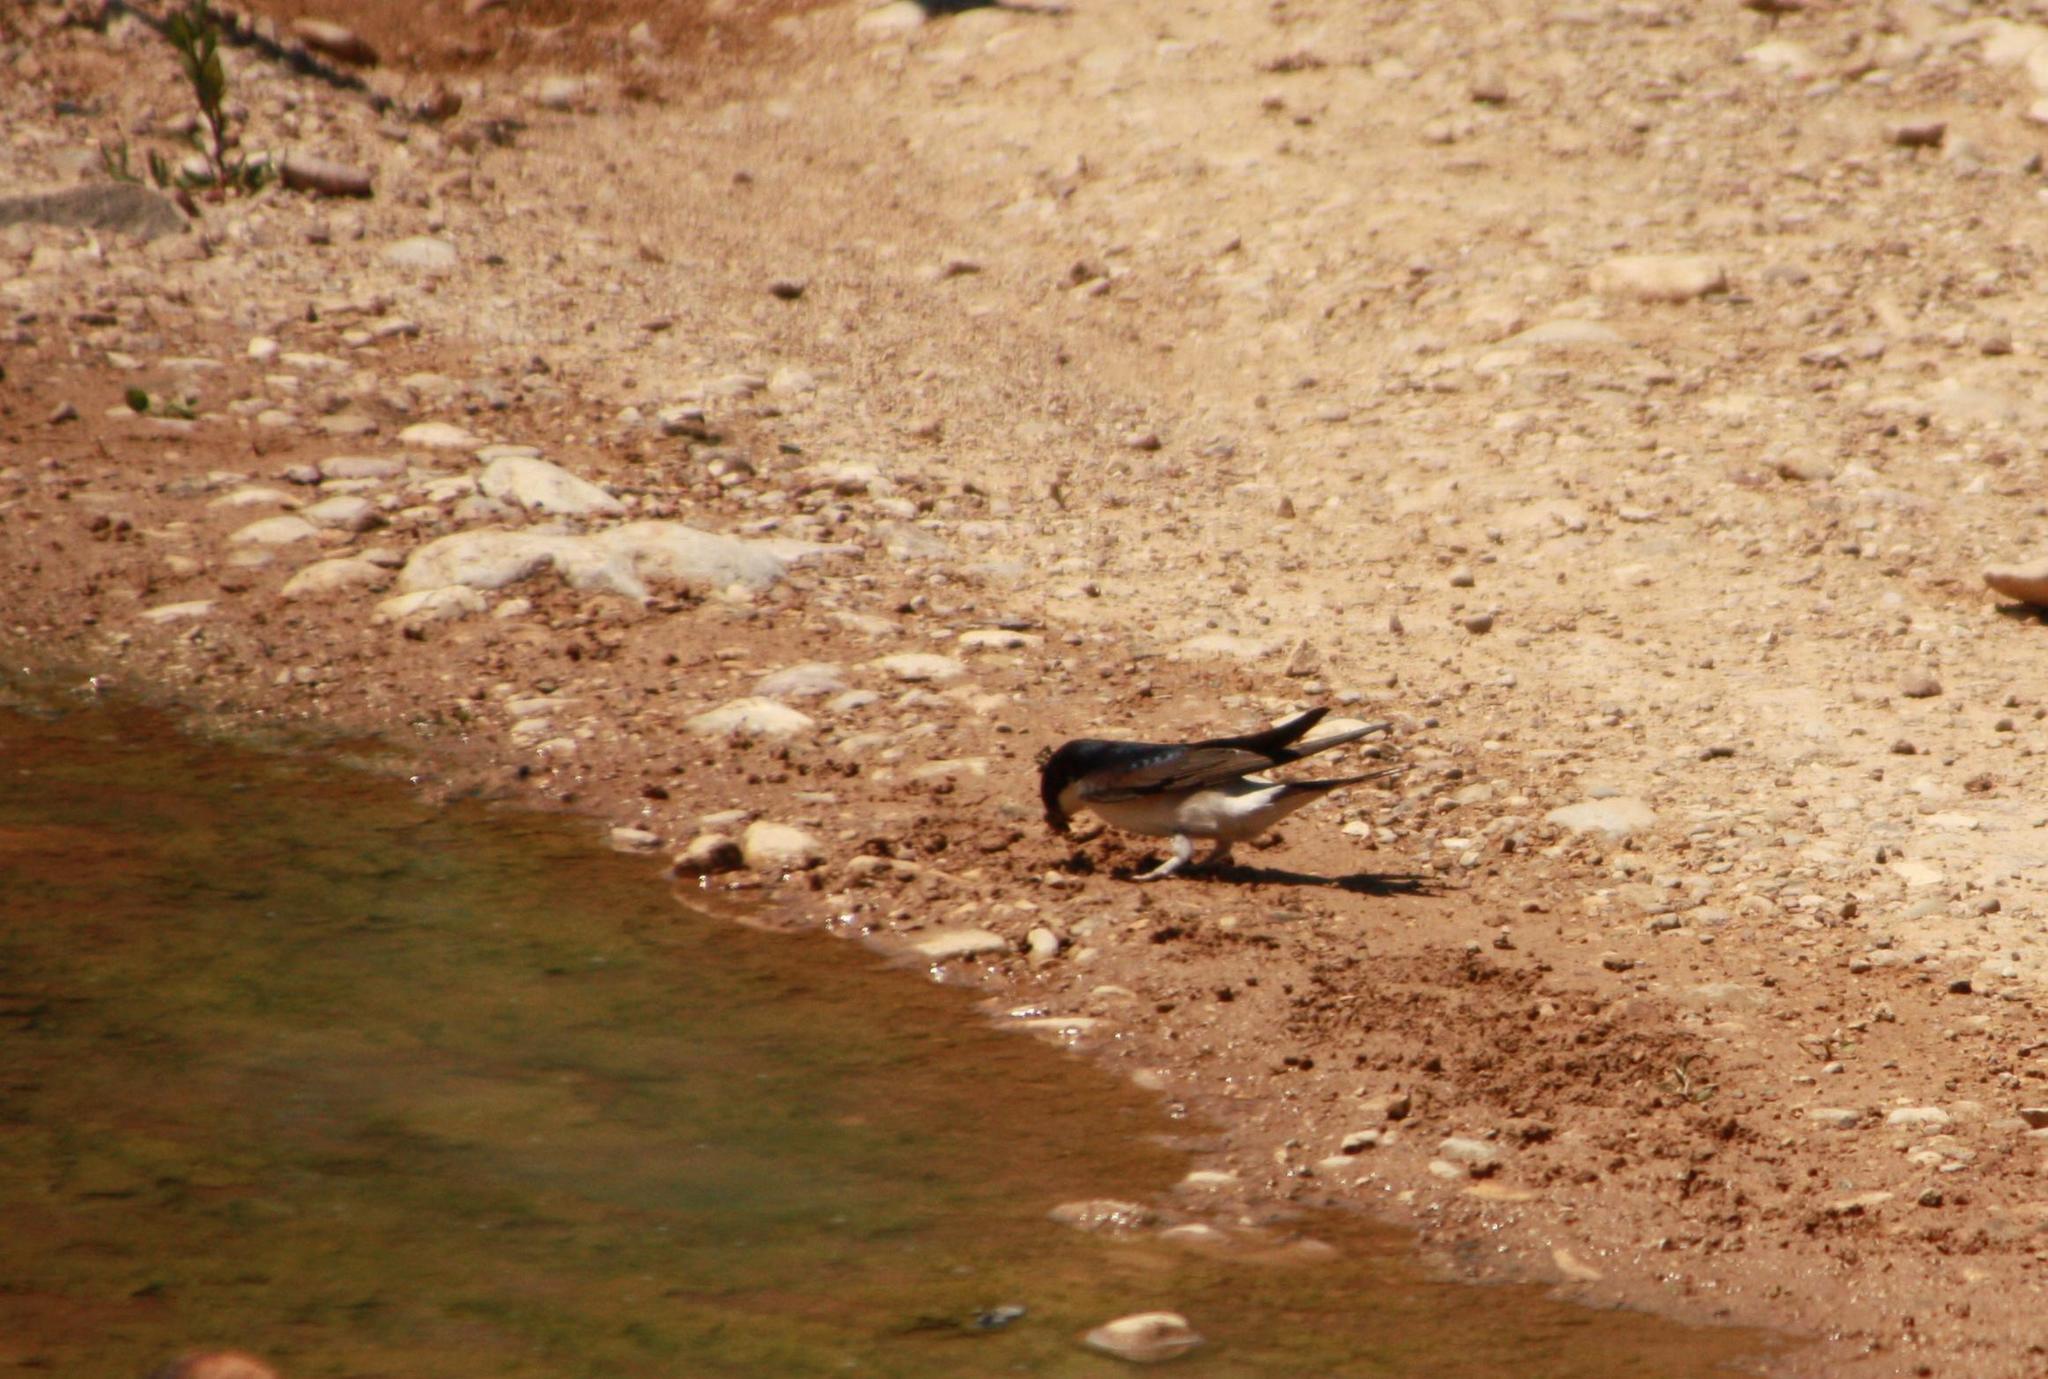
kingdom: Animalia
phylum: Chordata
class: Aves
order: Passeriformes
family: Hirundinidae
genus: Delichon
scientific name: Delichon urbicum
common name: Common house martin
